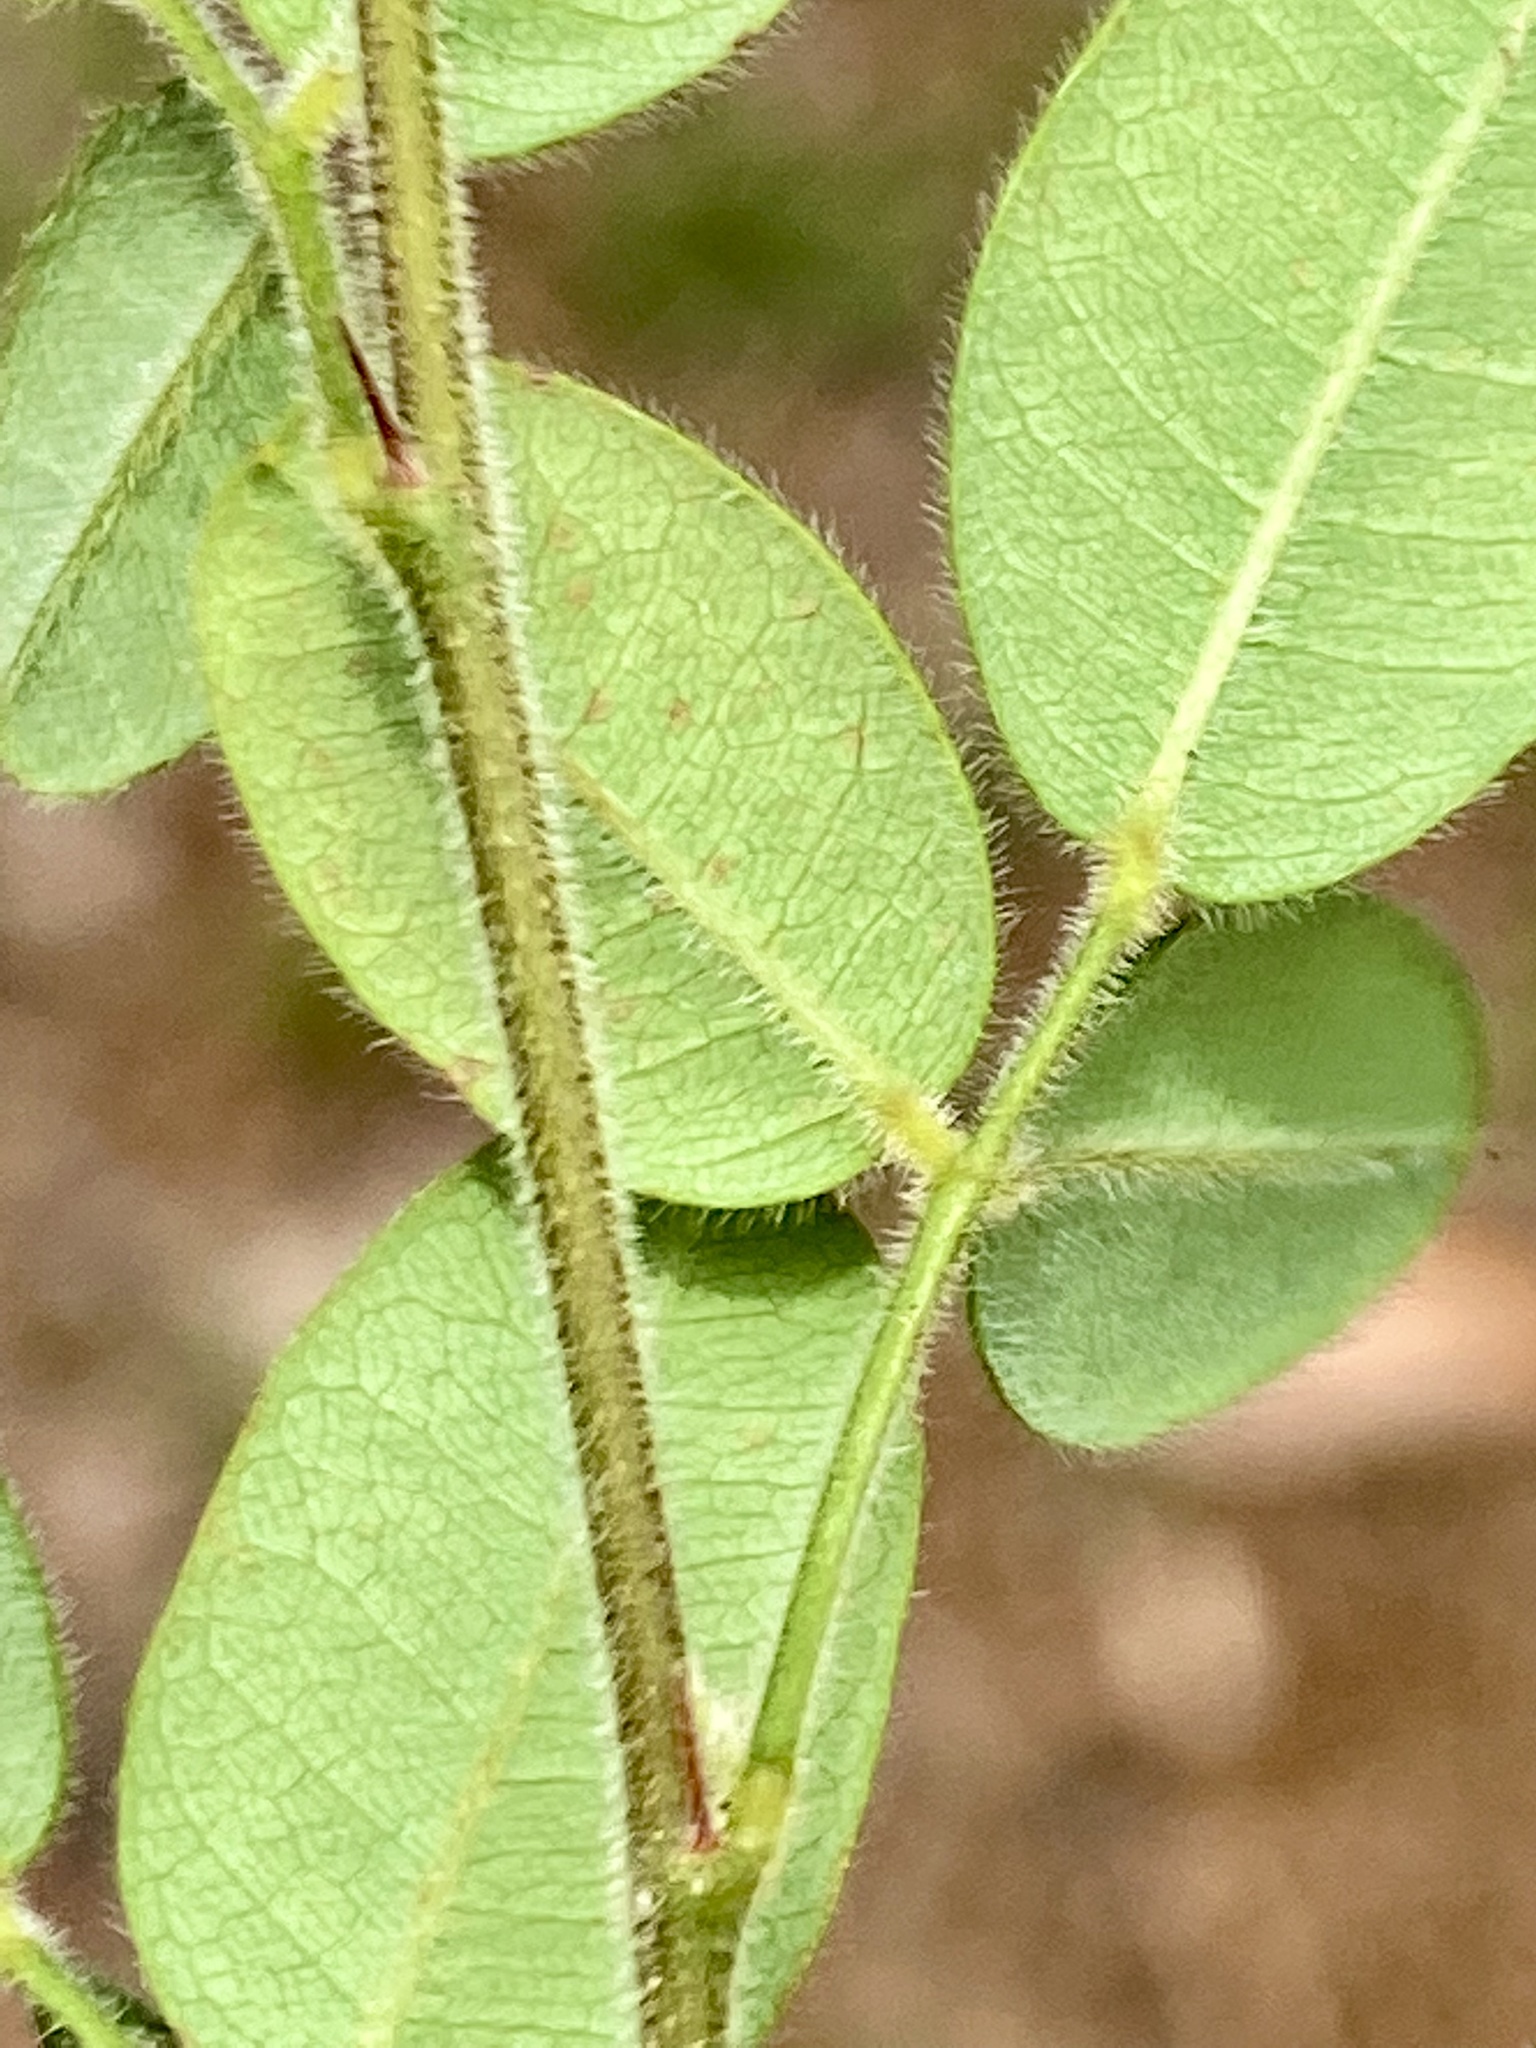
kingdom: Plantae
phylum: Tracheophyta
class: Magnoliopsida
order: Fabales
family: Fabaceae
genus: Lespedeza
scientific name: Lespedeza procumbens
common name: Downy trailing bush-clover
